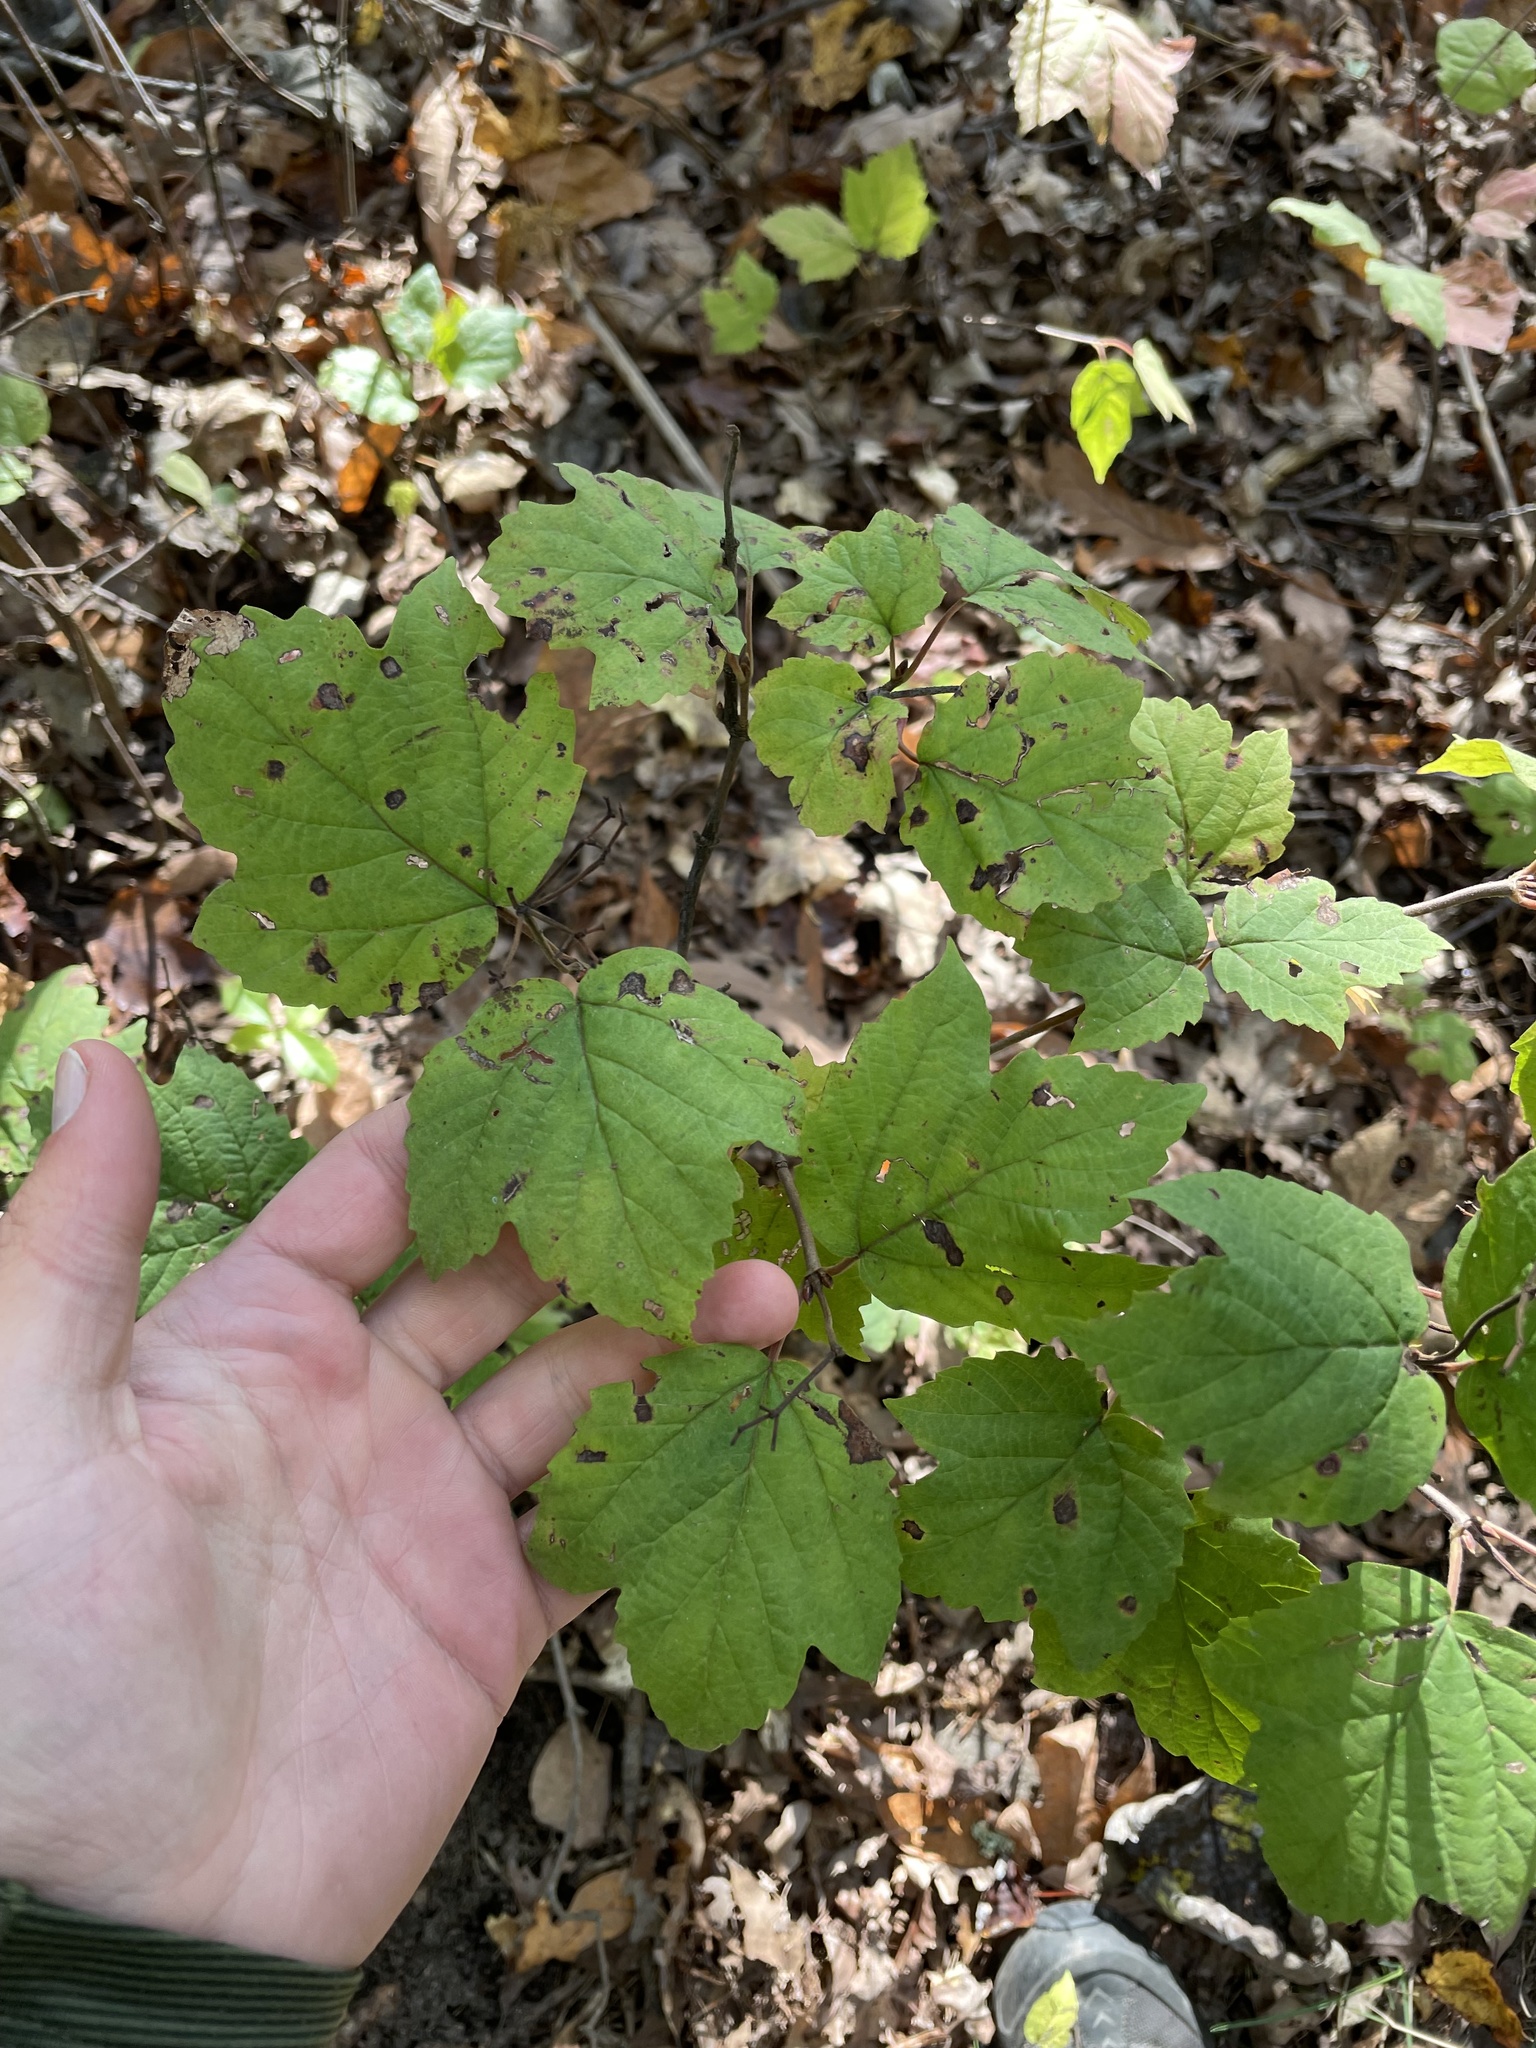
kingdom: Plantae
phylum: Tracheophyta
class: Magnoliopsida
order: Dipsacales
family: Viburnaceae
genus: Viburnum
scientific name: Viburnum acerifolium
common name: Dockmackie
